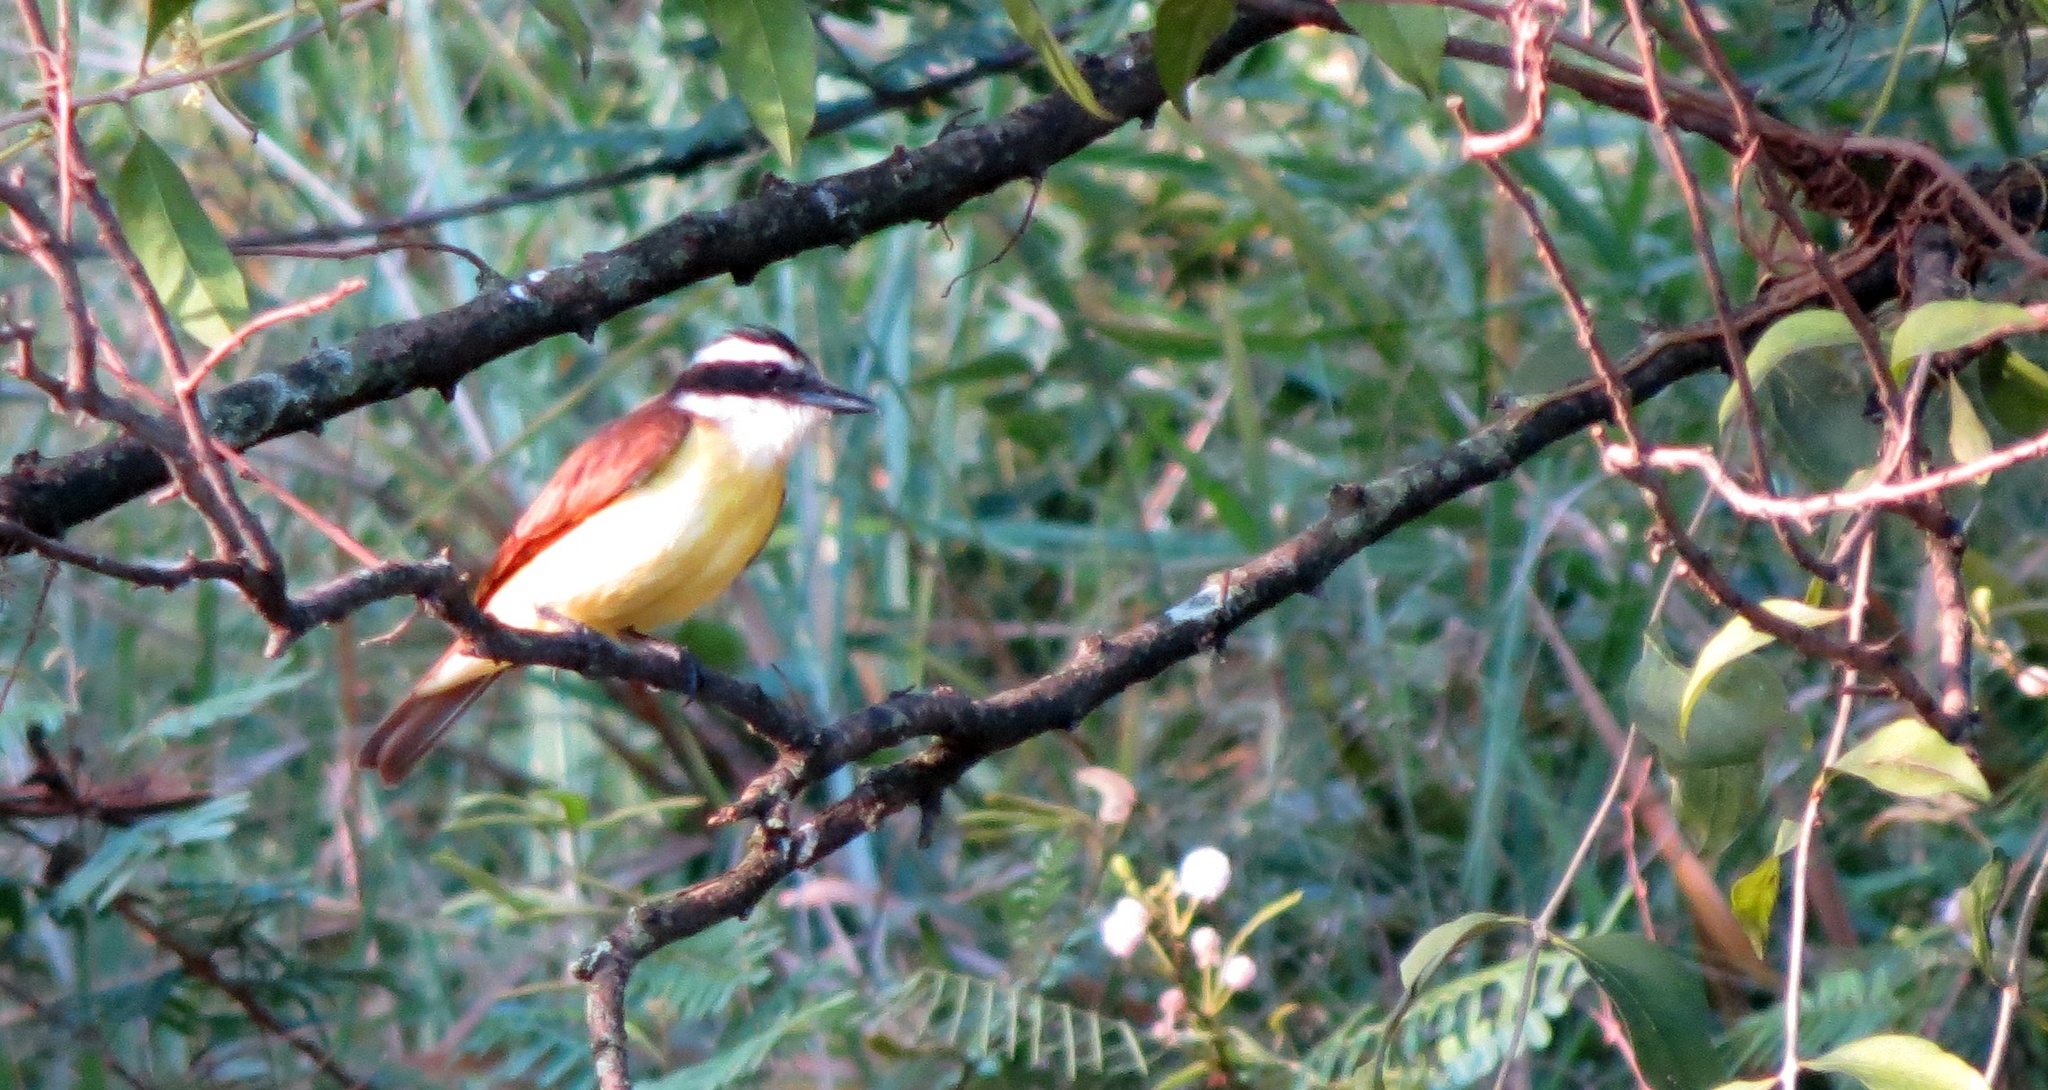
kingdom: Animalia
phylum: Chordata
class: Aves
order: Passeriformes
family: Tyrannidae
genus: Pitangus
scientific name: Pitangus sulphuratus
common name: Great kiskadee
